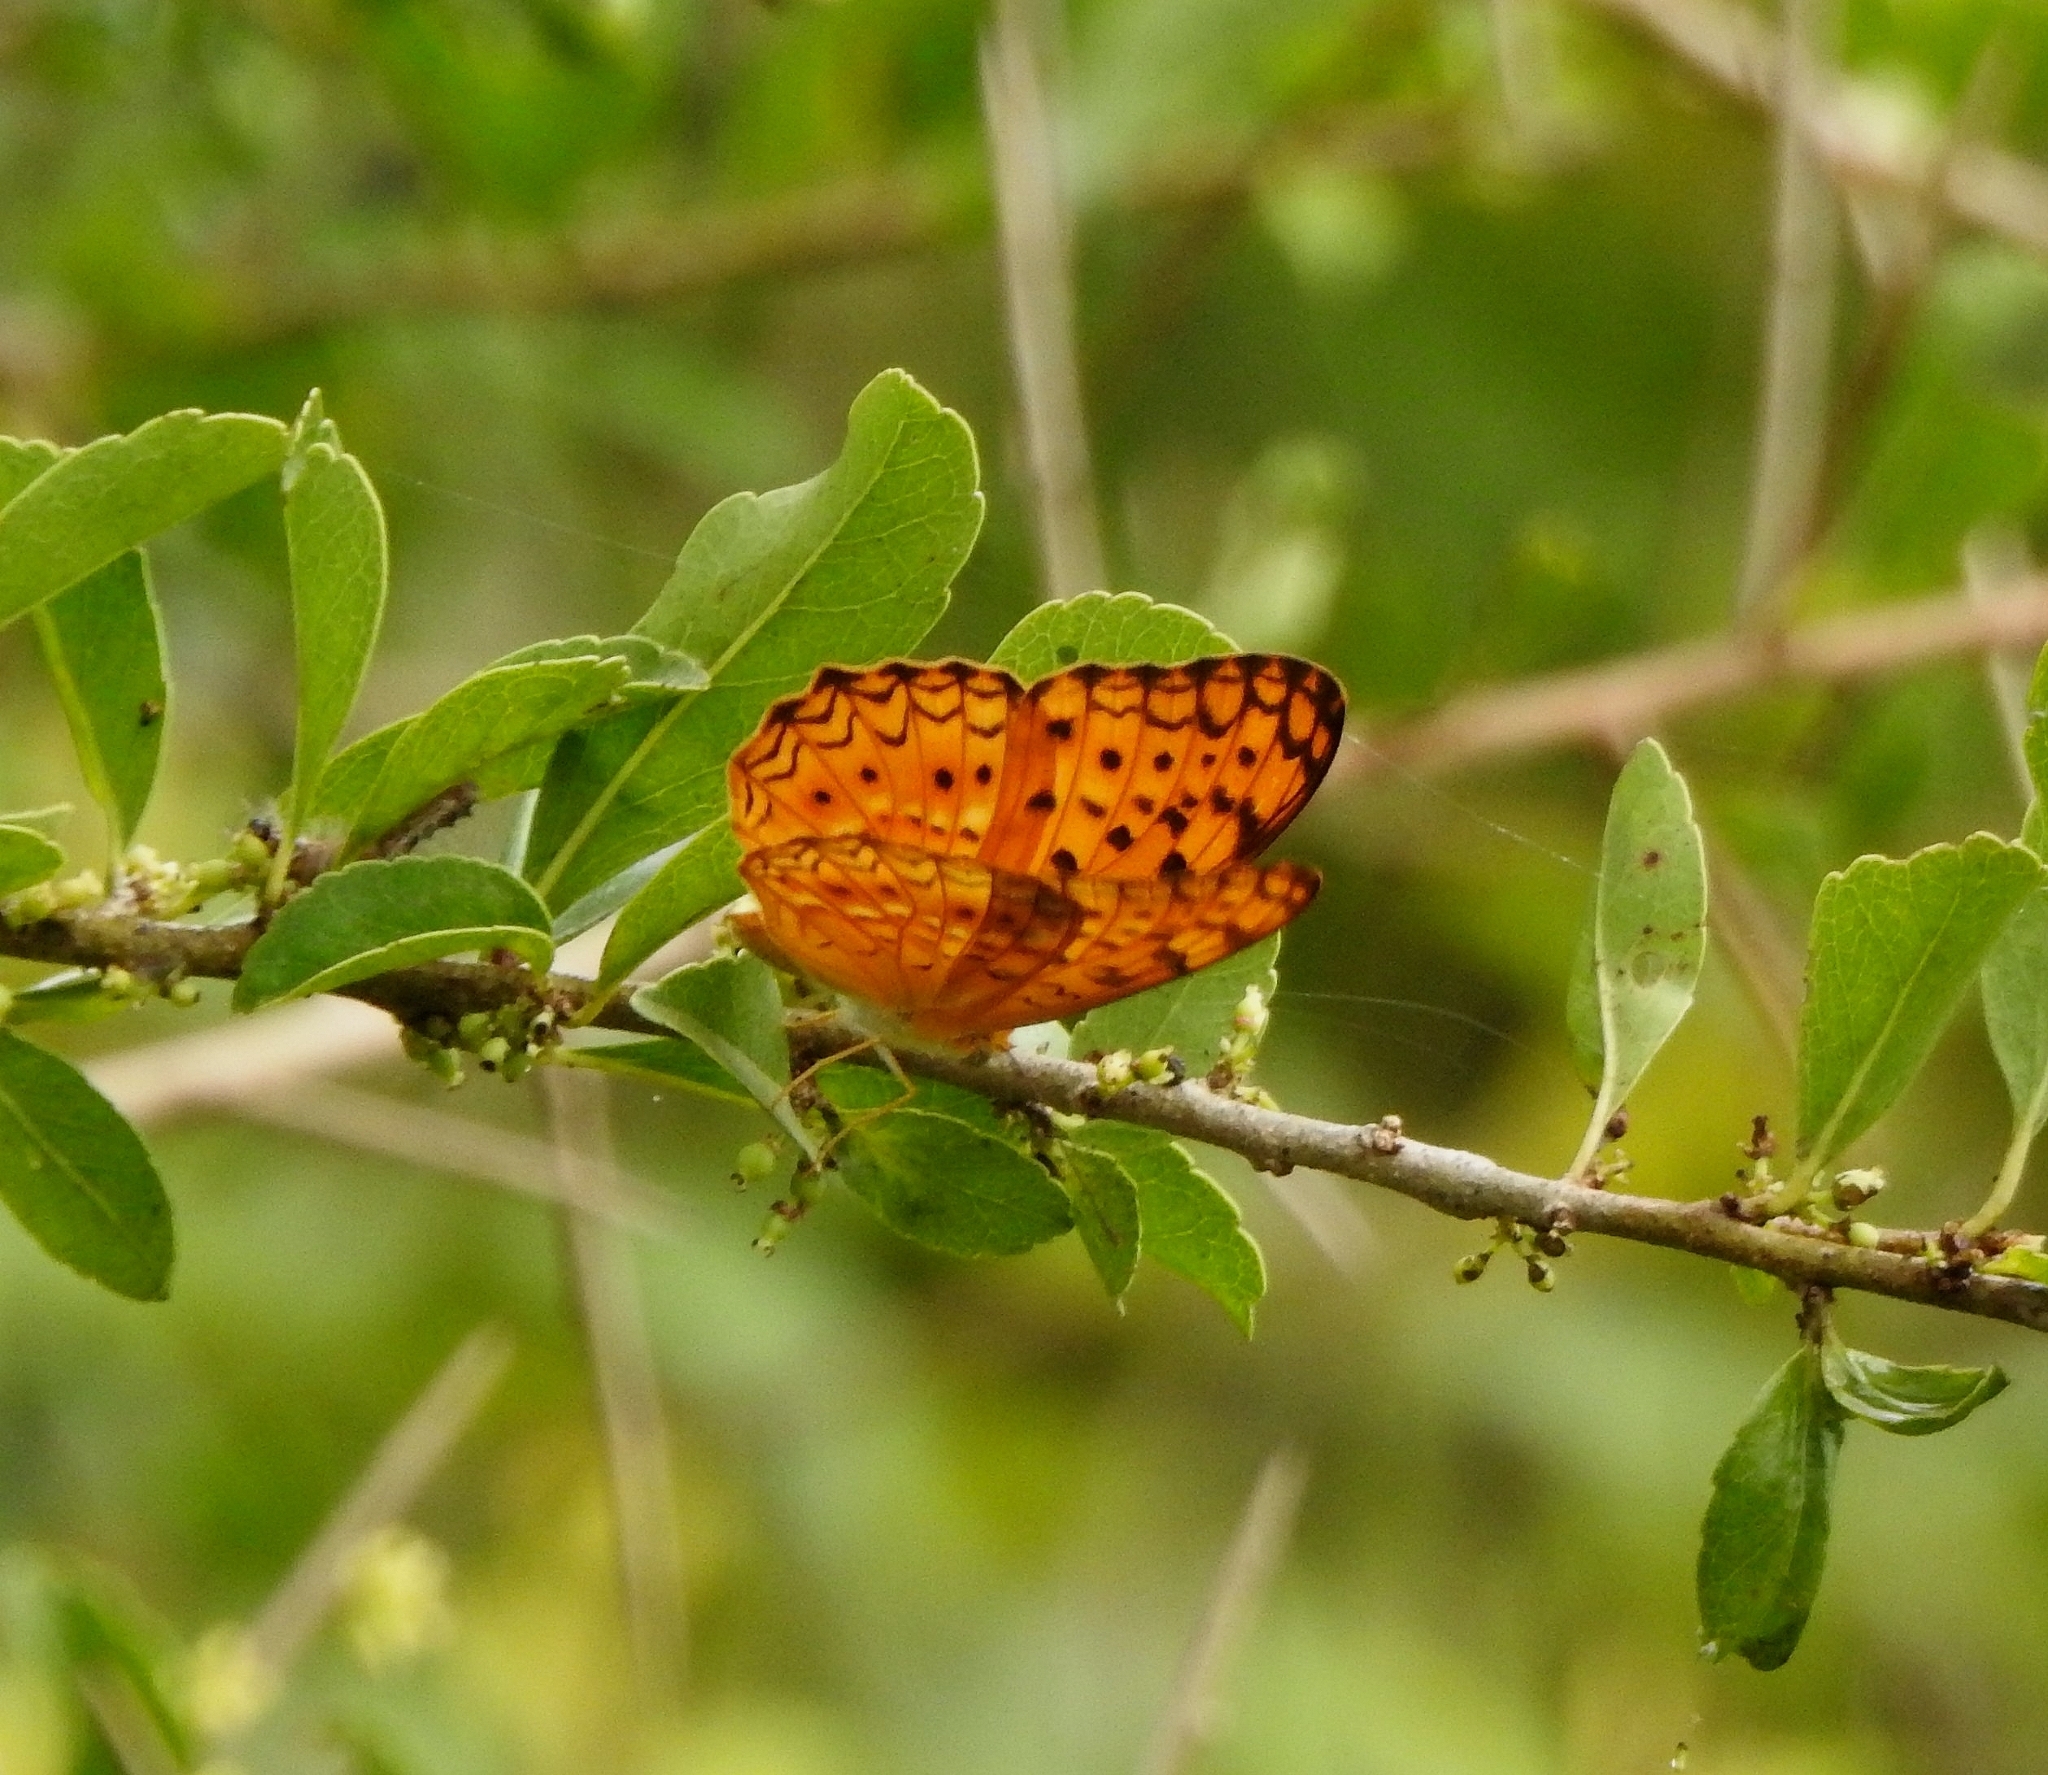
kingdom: Animalia
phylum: Arthropoda
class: Insecta
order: Lepidoptera
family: Nymphalidae
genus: Phalanta
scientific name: Phalanta phalantha
